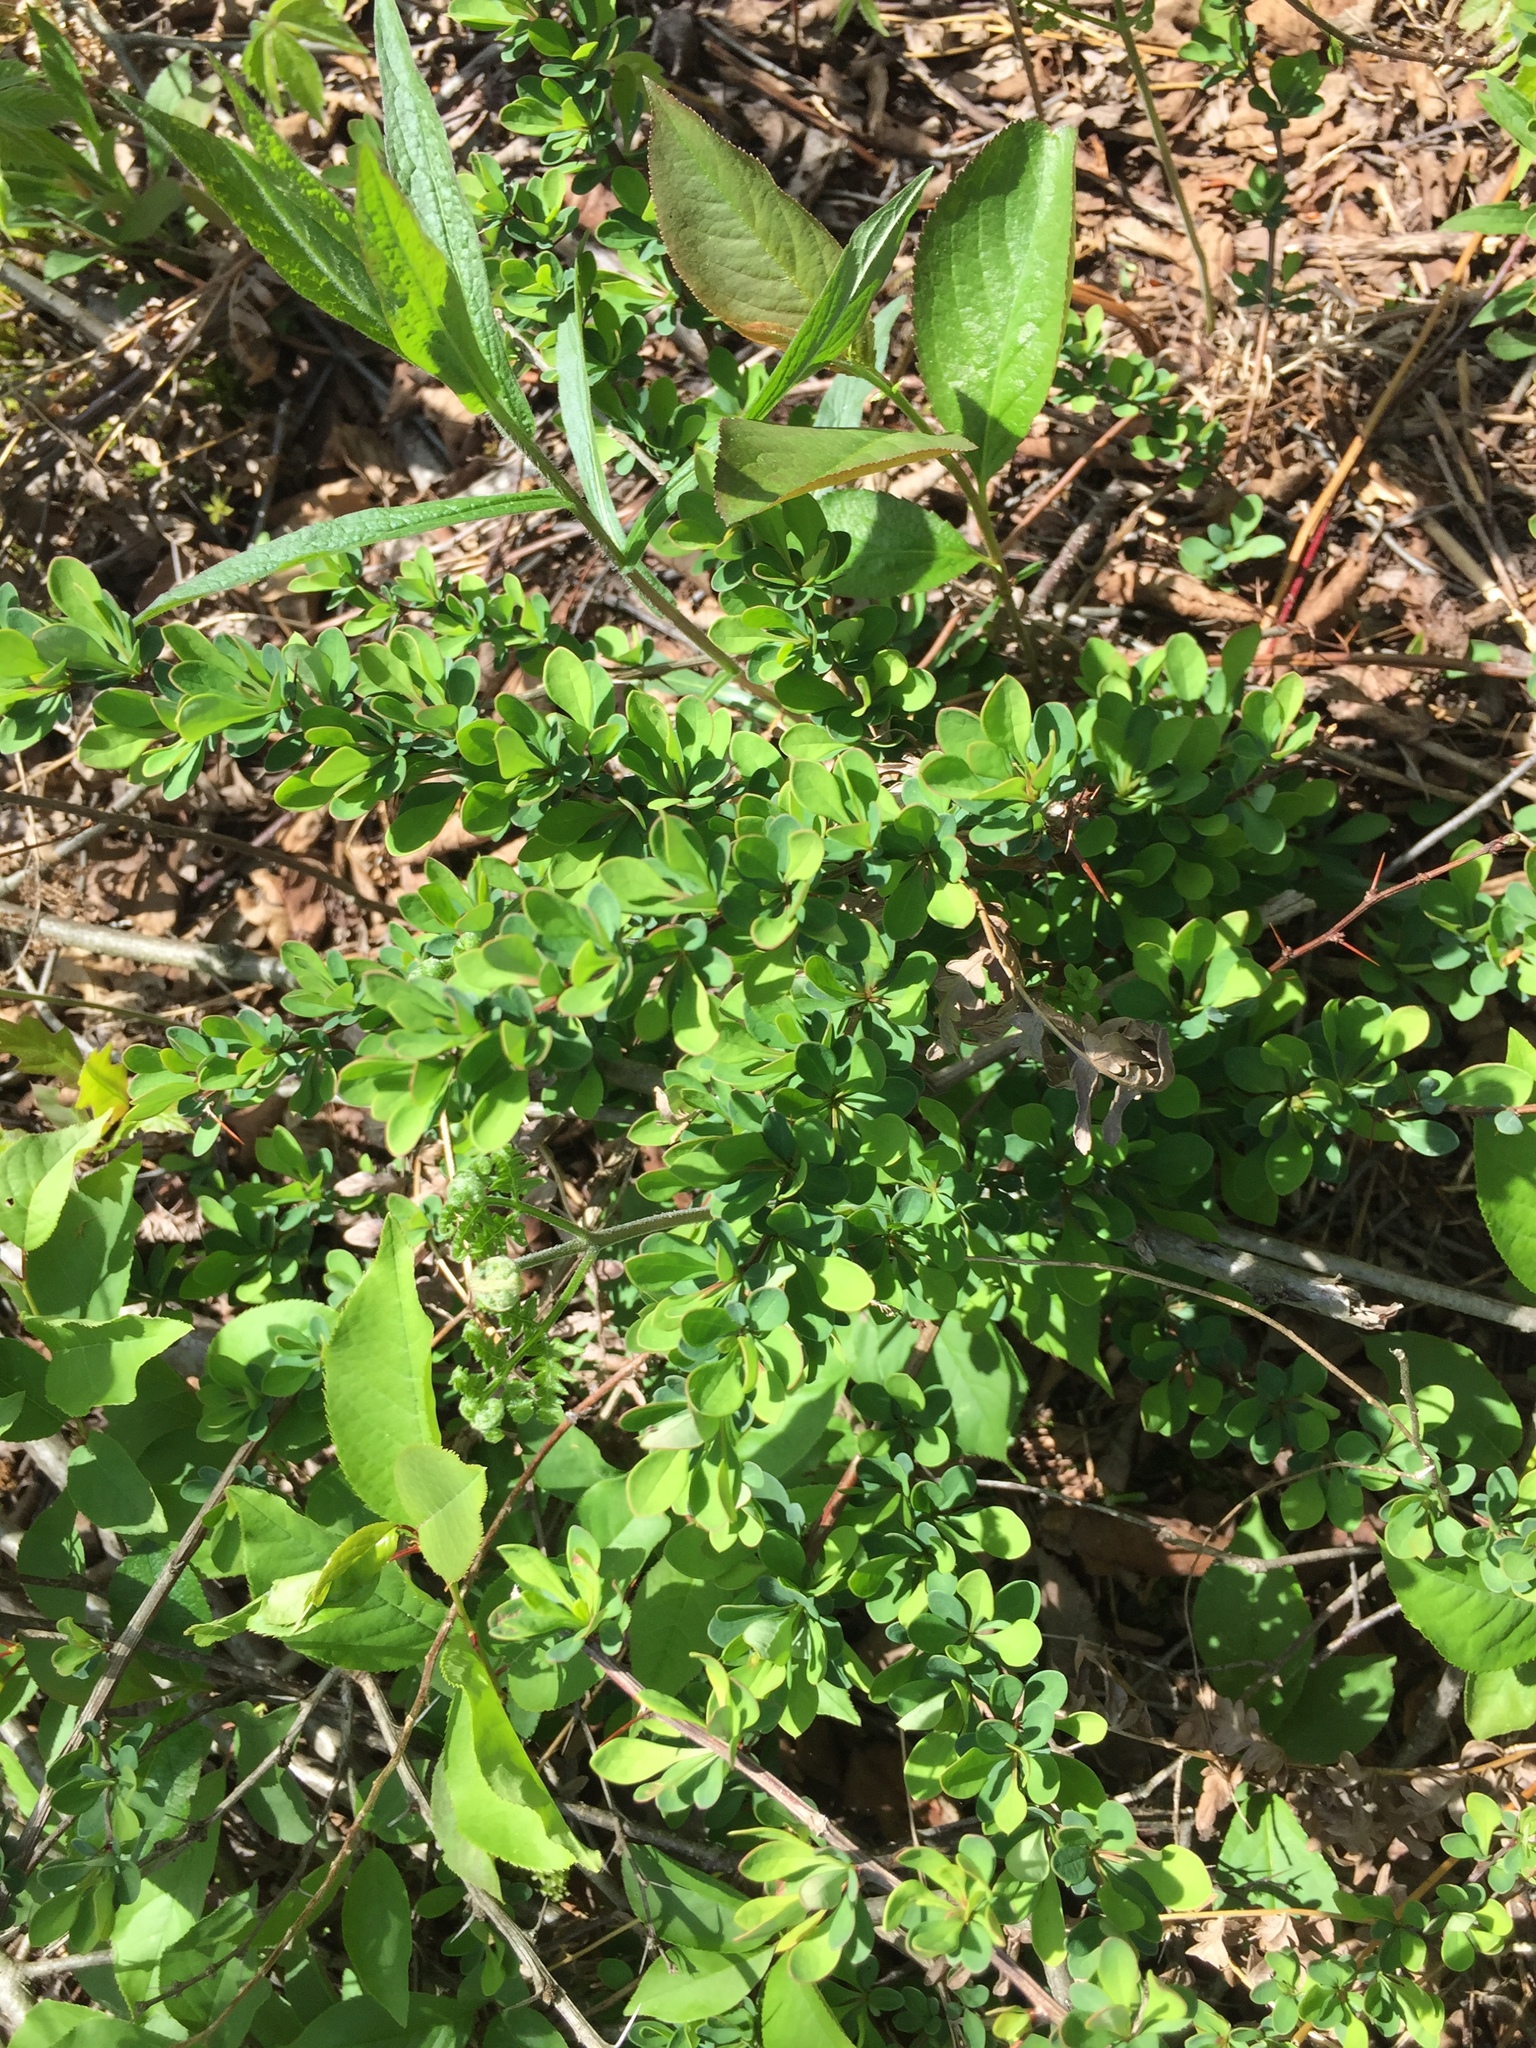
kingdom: Plantae
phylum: Tracheophyta
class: Magnoliopsida
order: Ranunculales
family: Berberidaceae
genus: Berberis
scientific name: Berberis thunbergii
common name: Japanese barberry
